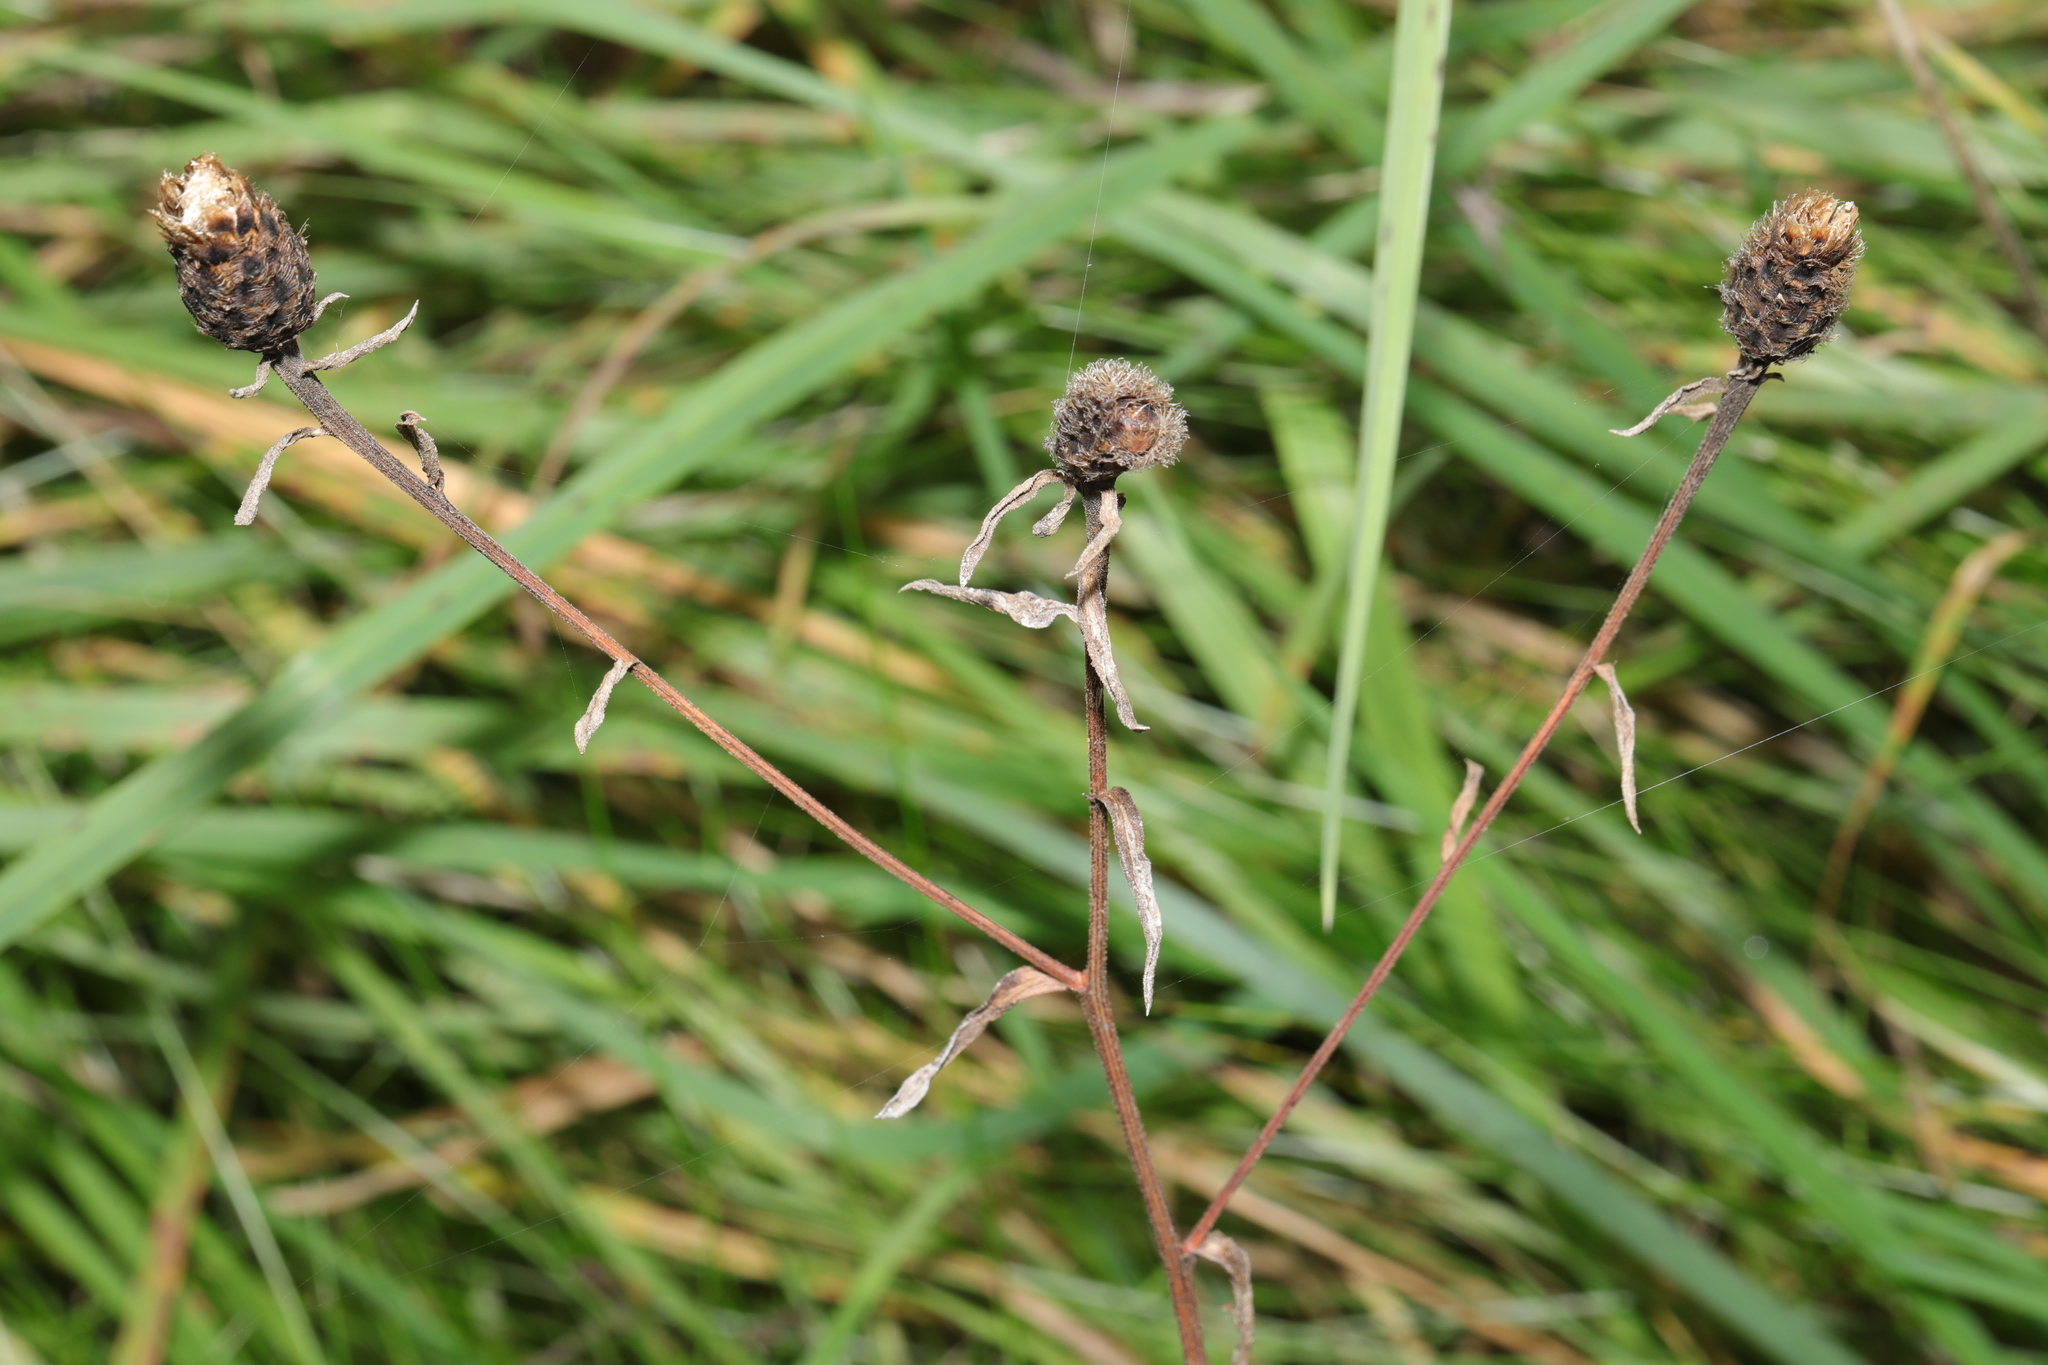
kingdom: Plantae
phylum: Tracheophyta
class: Magnoliopsida
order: Asterales
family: Asteraceae
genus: Centaurea
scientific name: Centaurea nigra
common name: Lesser knapweed
